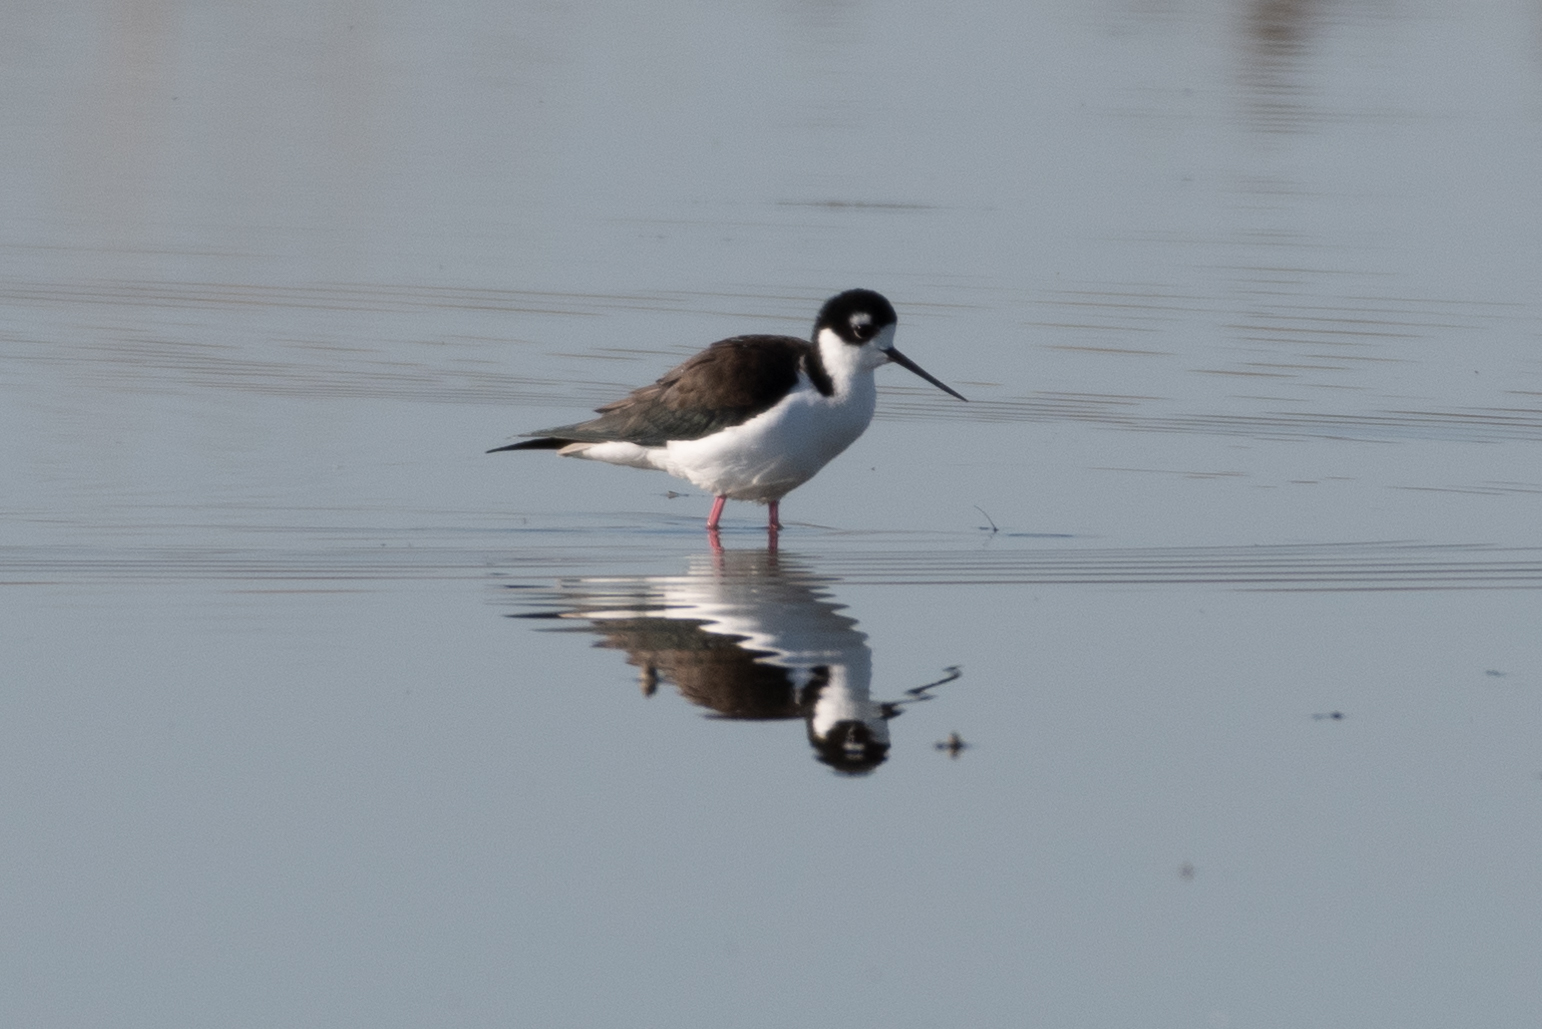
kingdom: Animalia
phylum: Chordata
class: Aves
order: Charadriiformes
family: Recurvirostridae
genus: Himantopus
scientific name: Himantopus mexicanus
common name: Black-necked stilt
